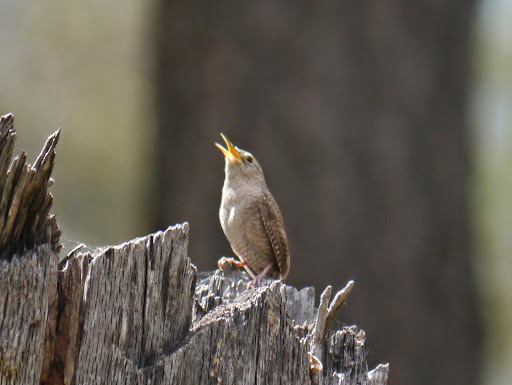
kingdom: Animalia
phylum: Chordata
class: Aves
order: Passeriformes
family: Troglodytidae
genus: Troglodytes
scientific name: Troglodytes aedon
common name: House wren
